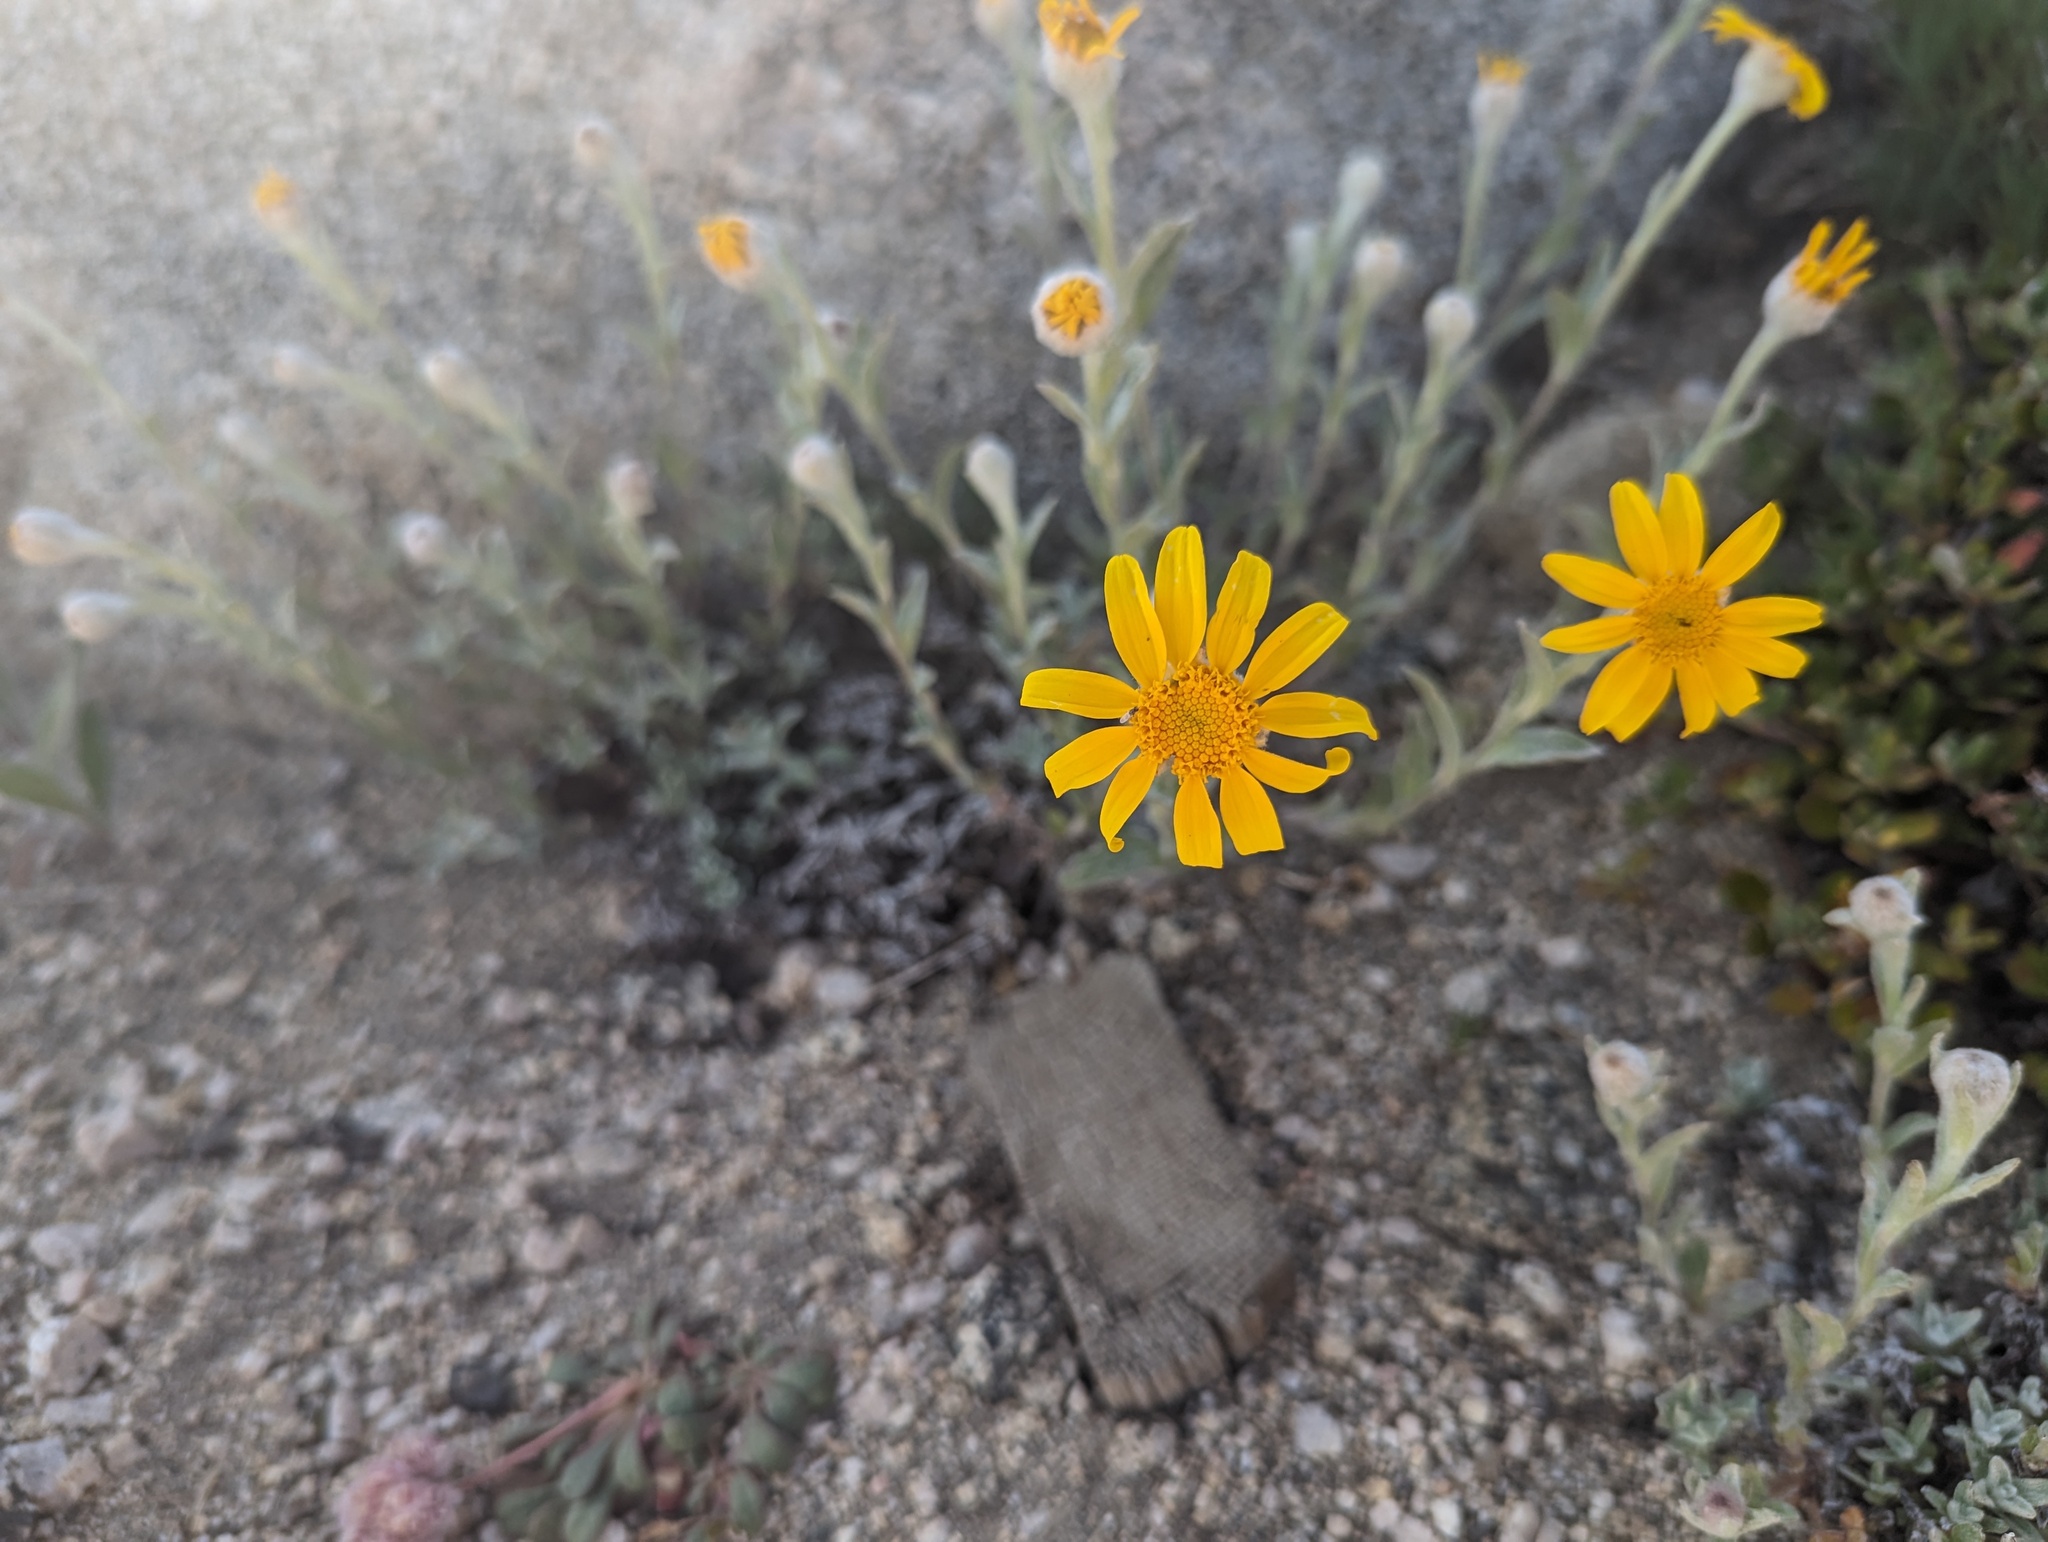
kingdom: Plantae
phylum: Tracheophyta
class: Magnoliopsida
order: Asterales
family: Asteraceae
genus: Eriophyllum
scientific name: Eriophyllum lanatum
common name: Common woolly-sunflower
